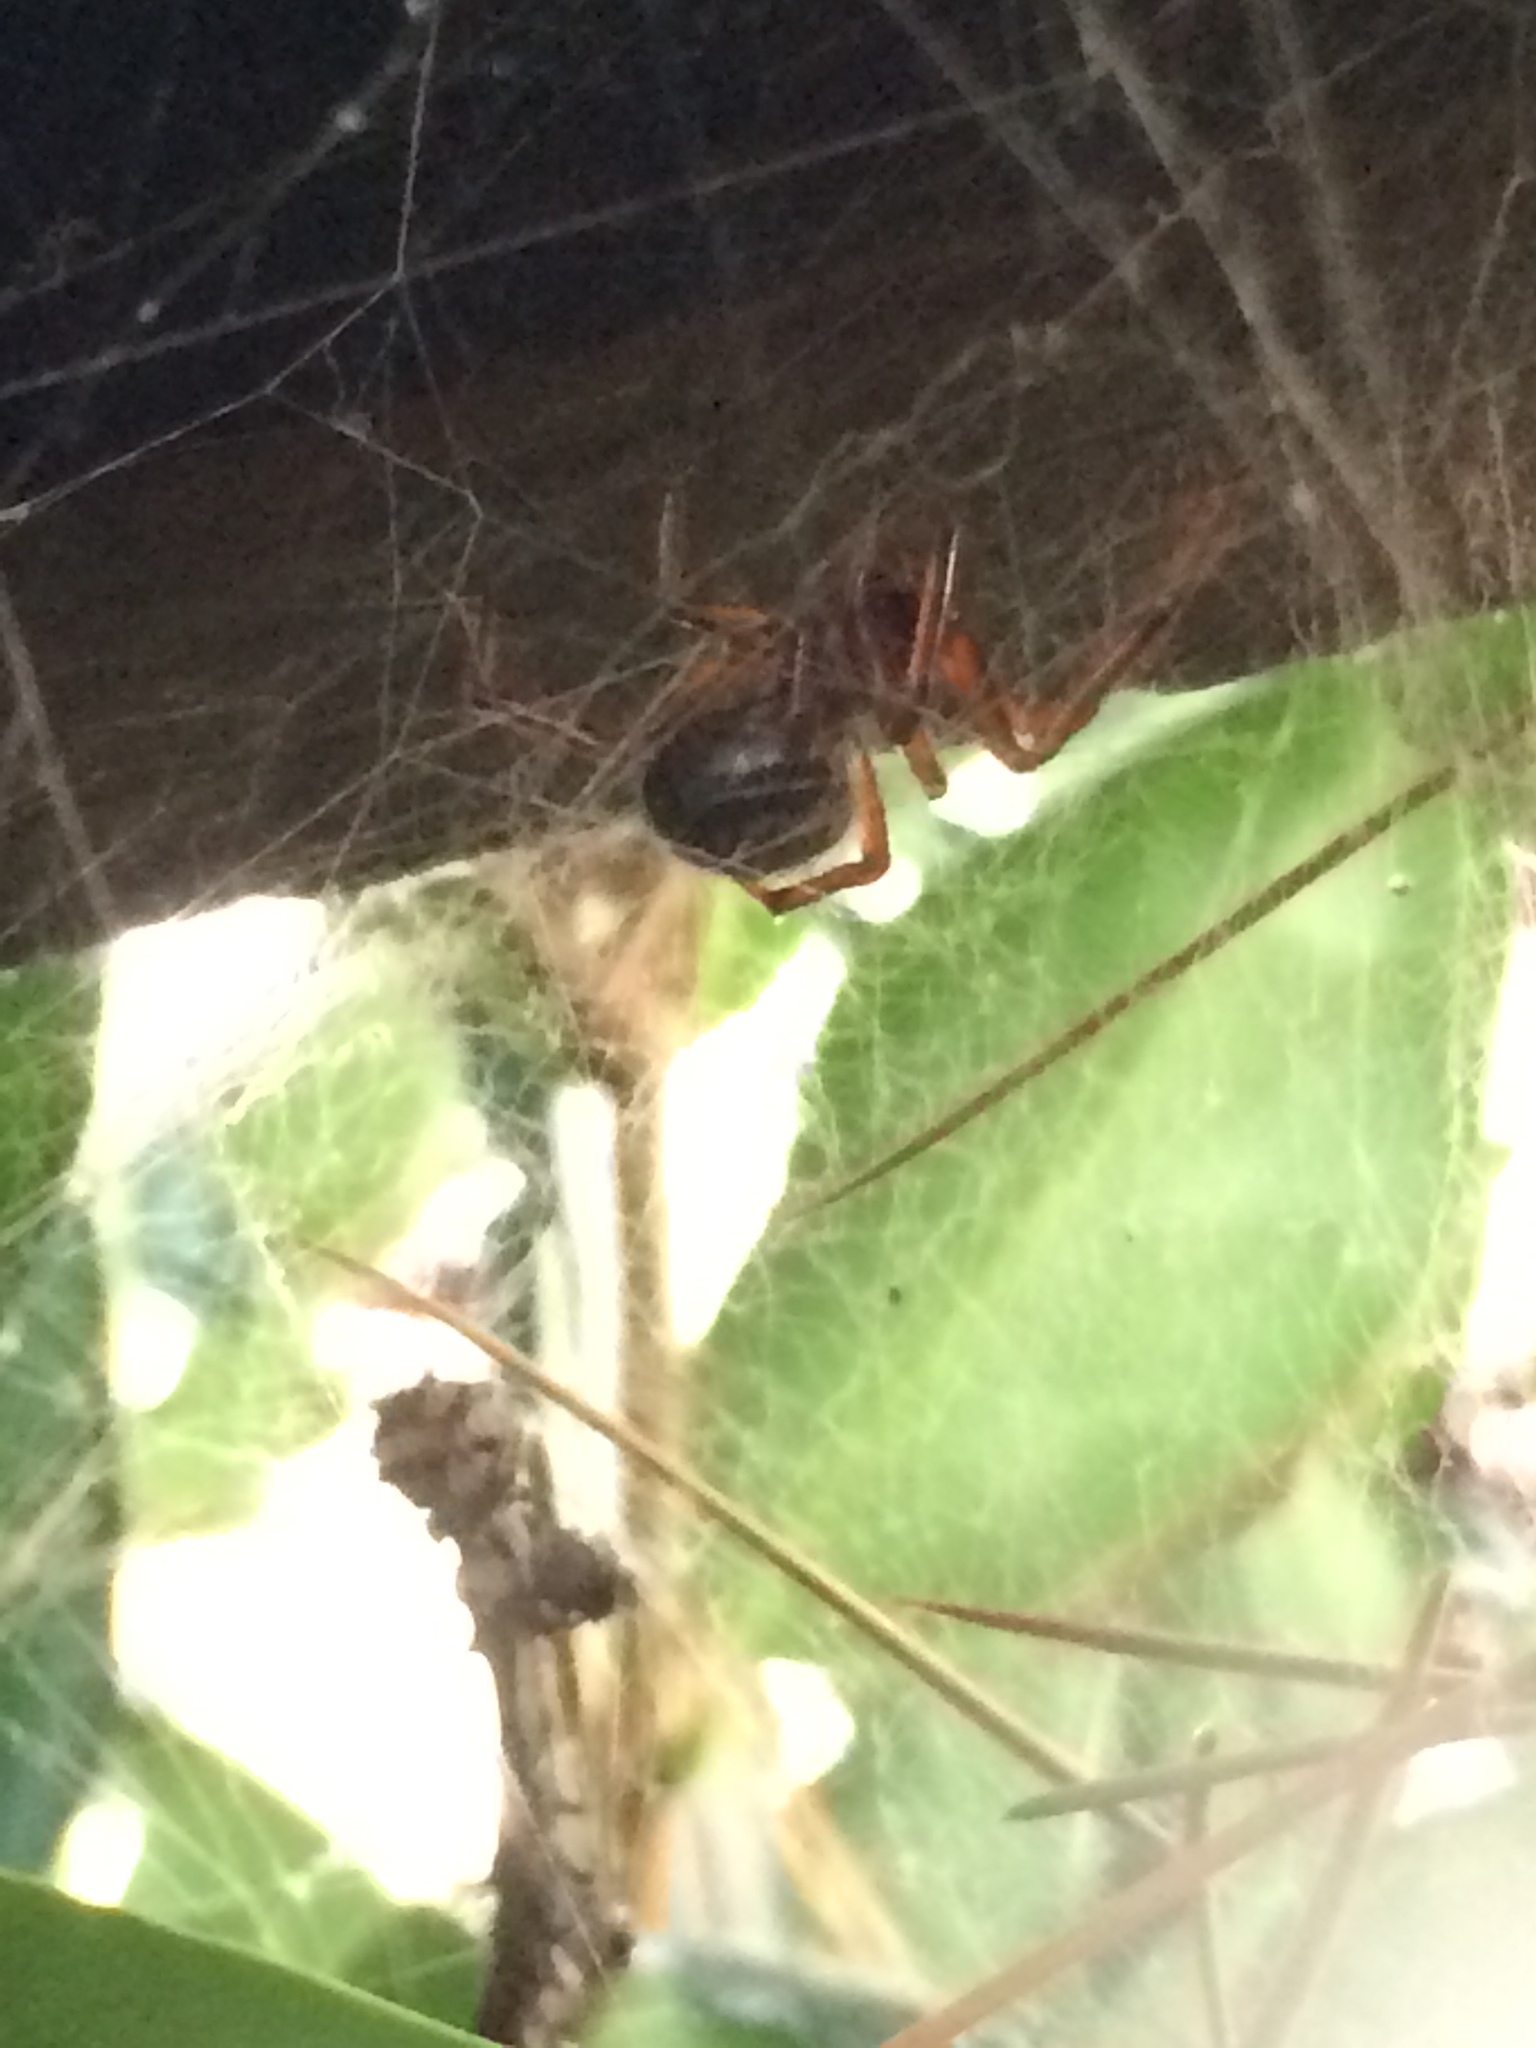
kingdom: Animalia
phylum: Arthropoda
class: Arachnida
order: Araneae
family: Theridiidae
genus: Steatoda
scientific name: Steatoda nobilis
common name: Cobweb weaver
